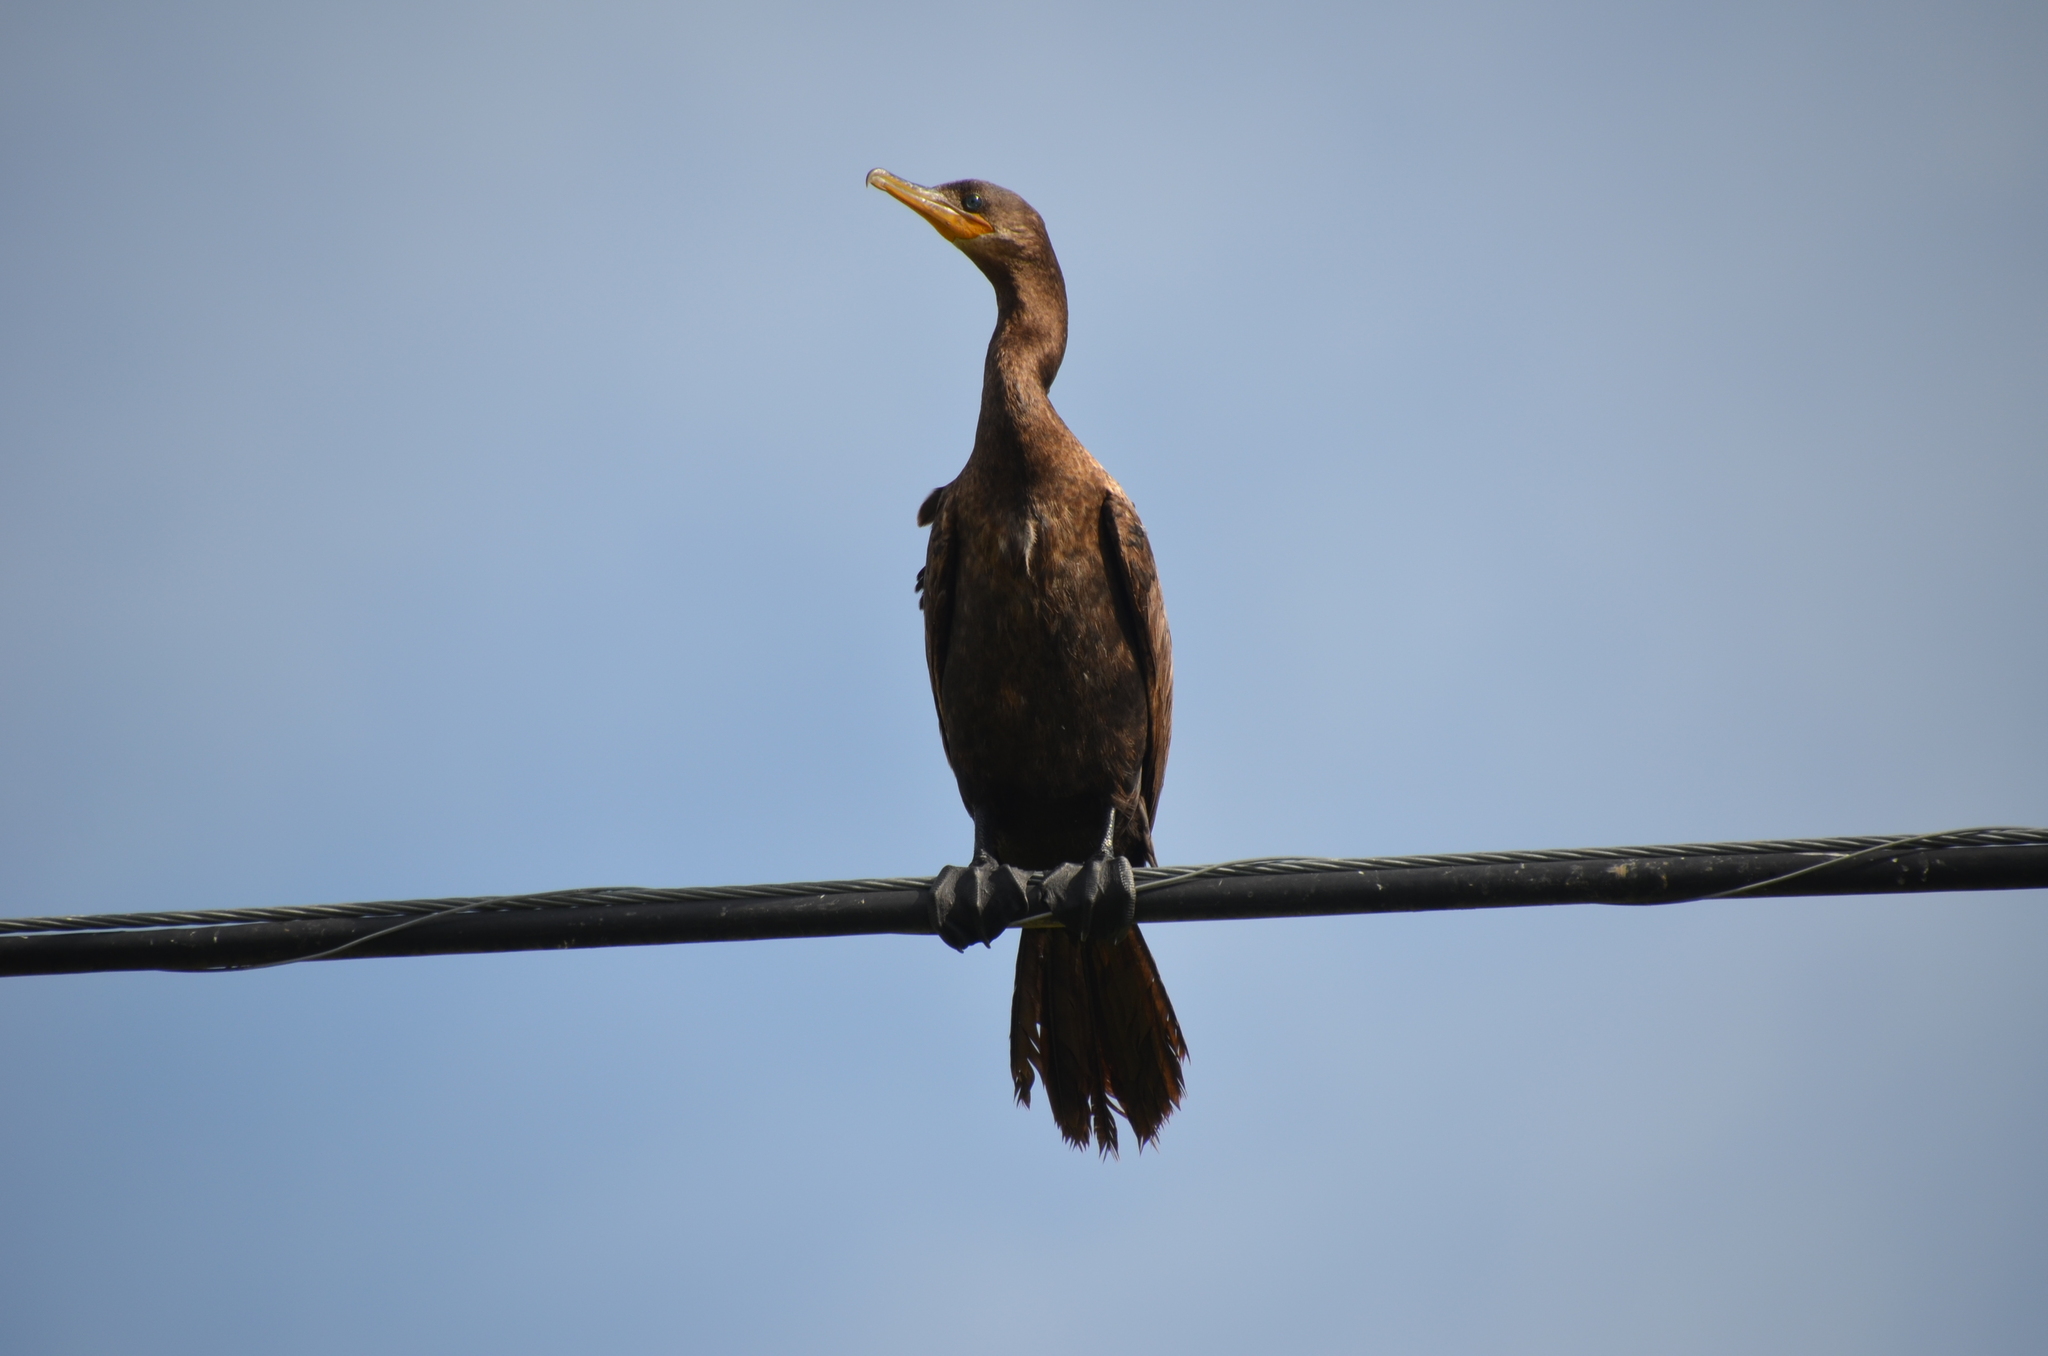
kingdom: Animalia
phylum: Chordata
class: Aves
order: Suliformes
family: Phalacrocoracidae
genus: Phalacrocorax
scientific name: Phalacrocorax brasilianus
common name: Neotropic cormorant
